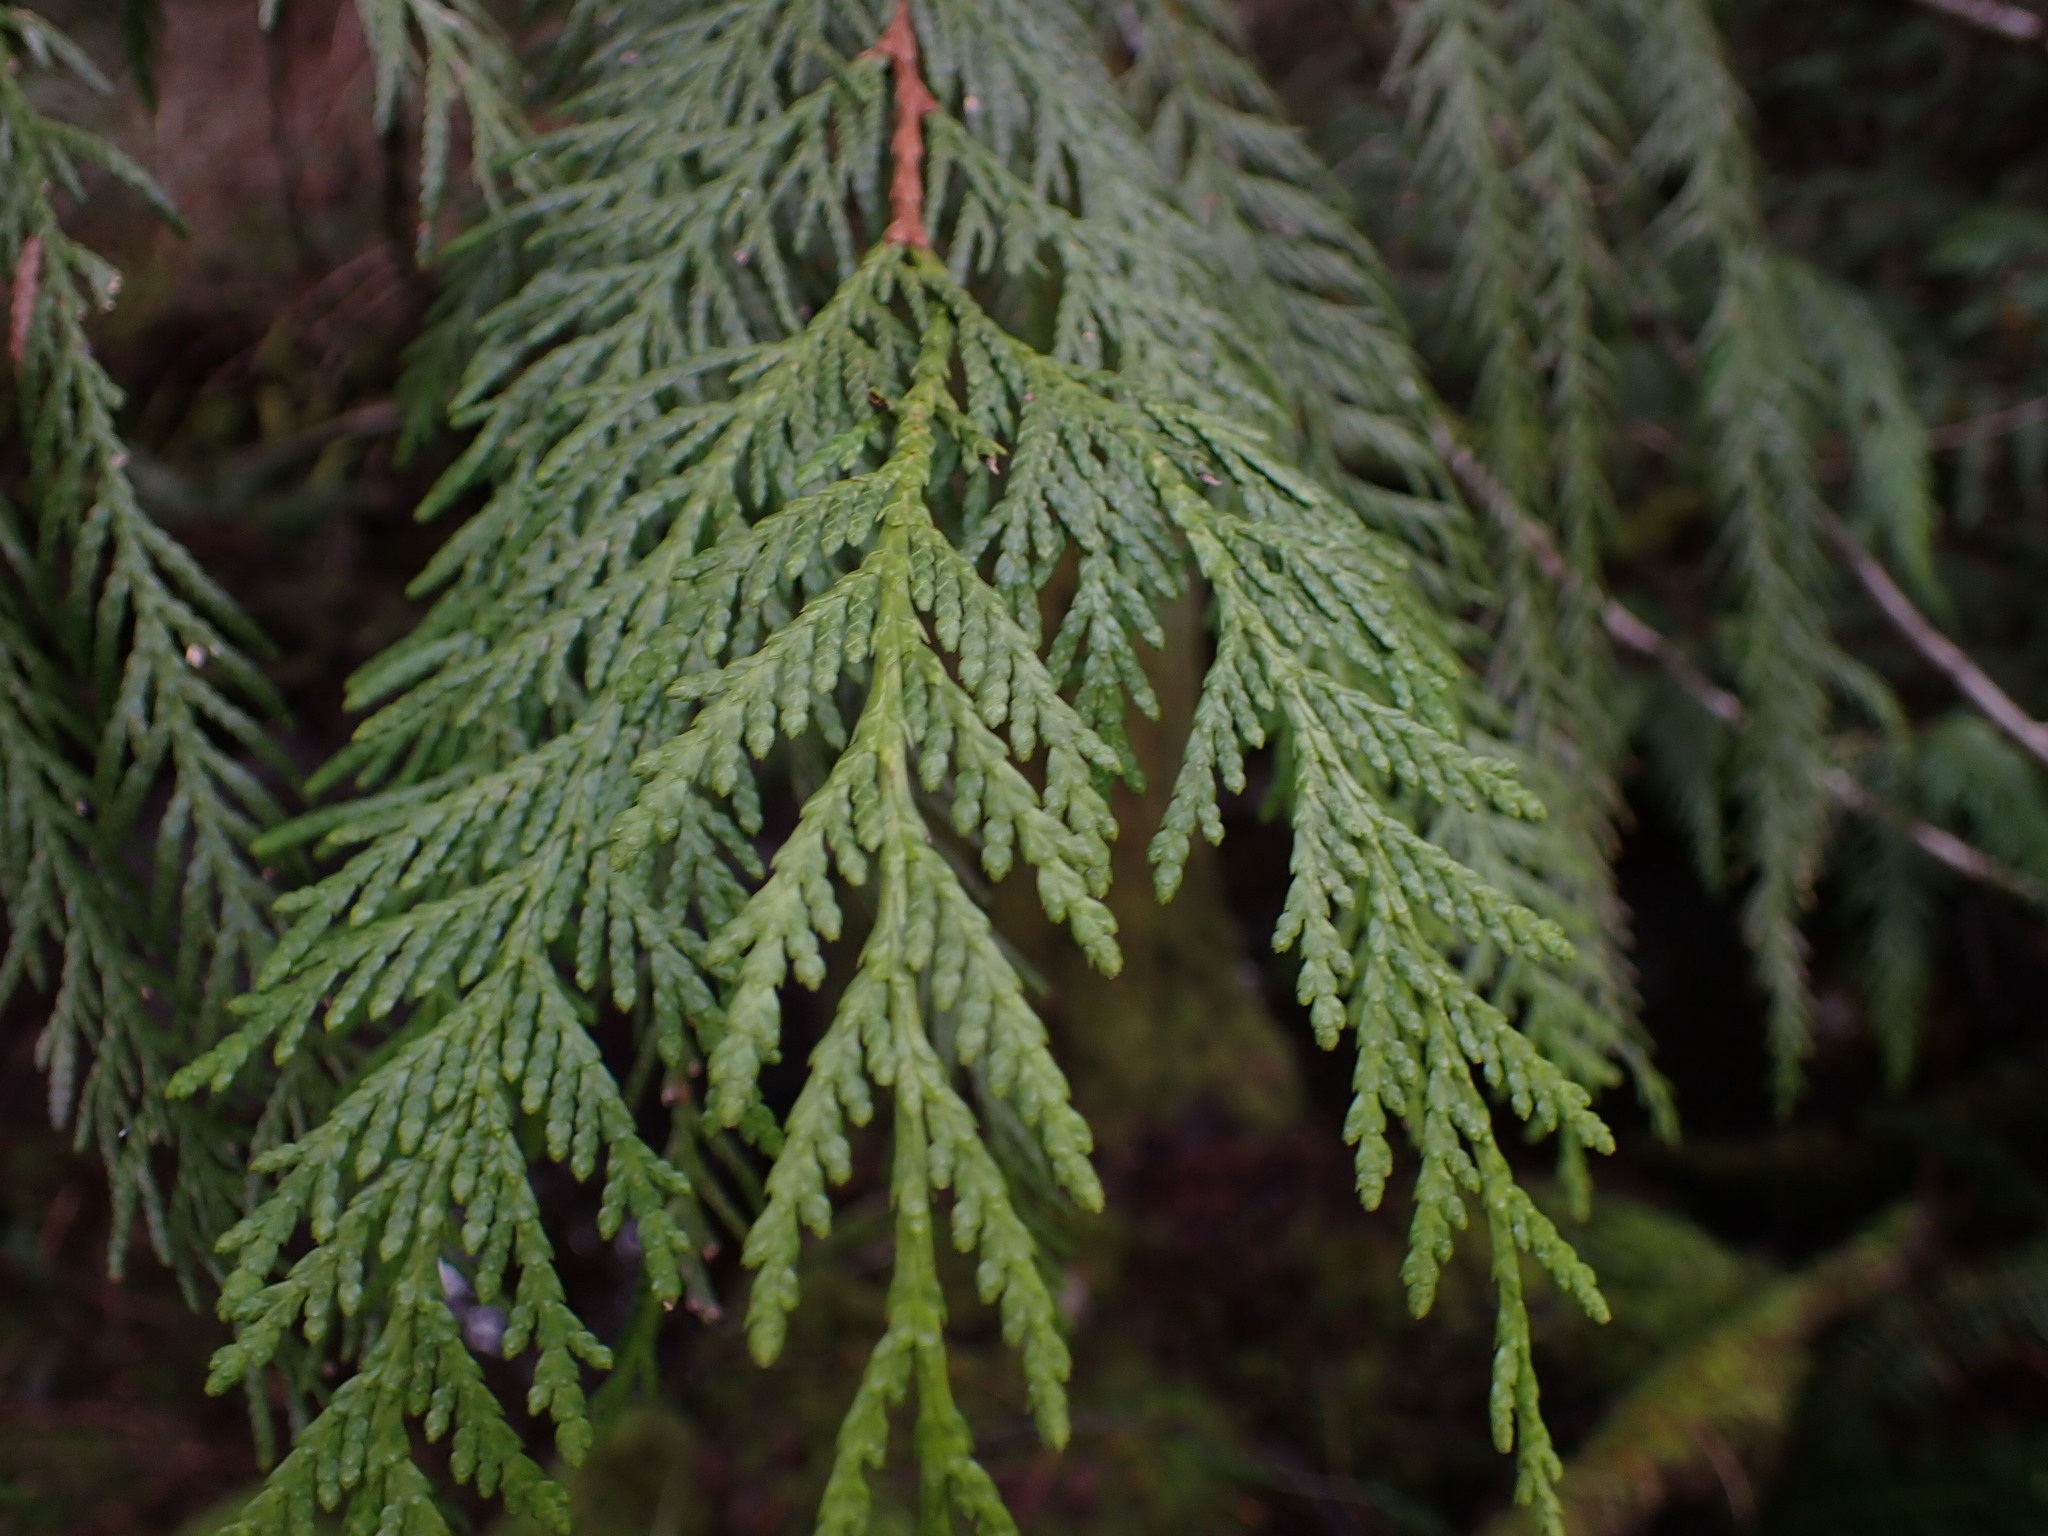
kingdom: Plantae
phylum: Tracheophyta
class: Pinopsida
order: Pinales
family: Cupressaceae
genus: Thuja
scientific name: Thuja plicata
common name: Western red-cedar
